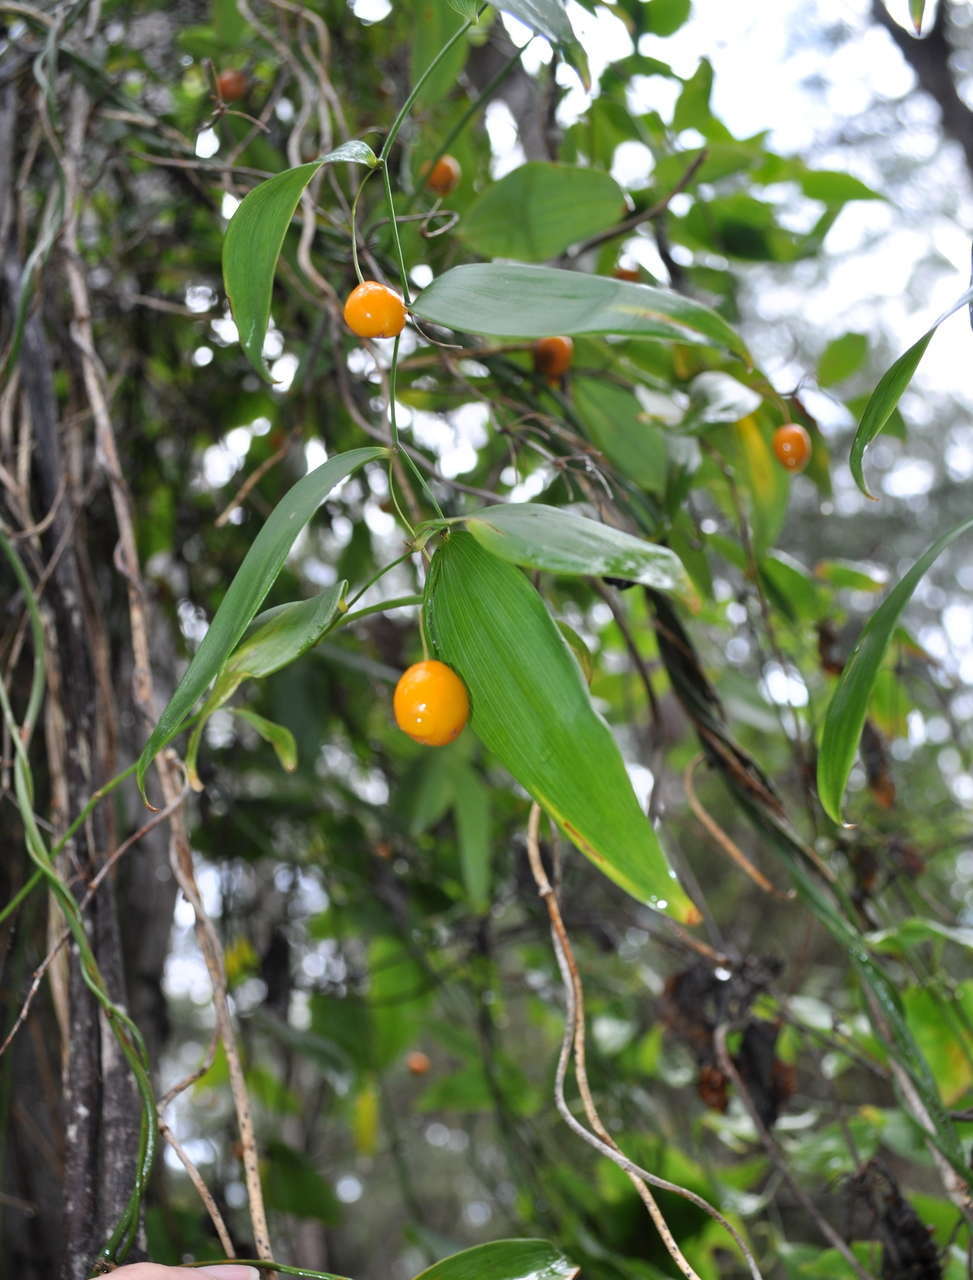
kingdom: Plantae
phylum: Tracheophyta
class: Liliopsida
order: Asparagales
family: Asparagaceae
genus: Eustrephus
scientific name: Eustrephus latifolius
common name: Orangevine
